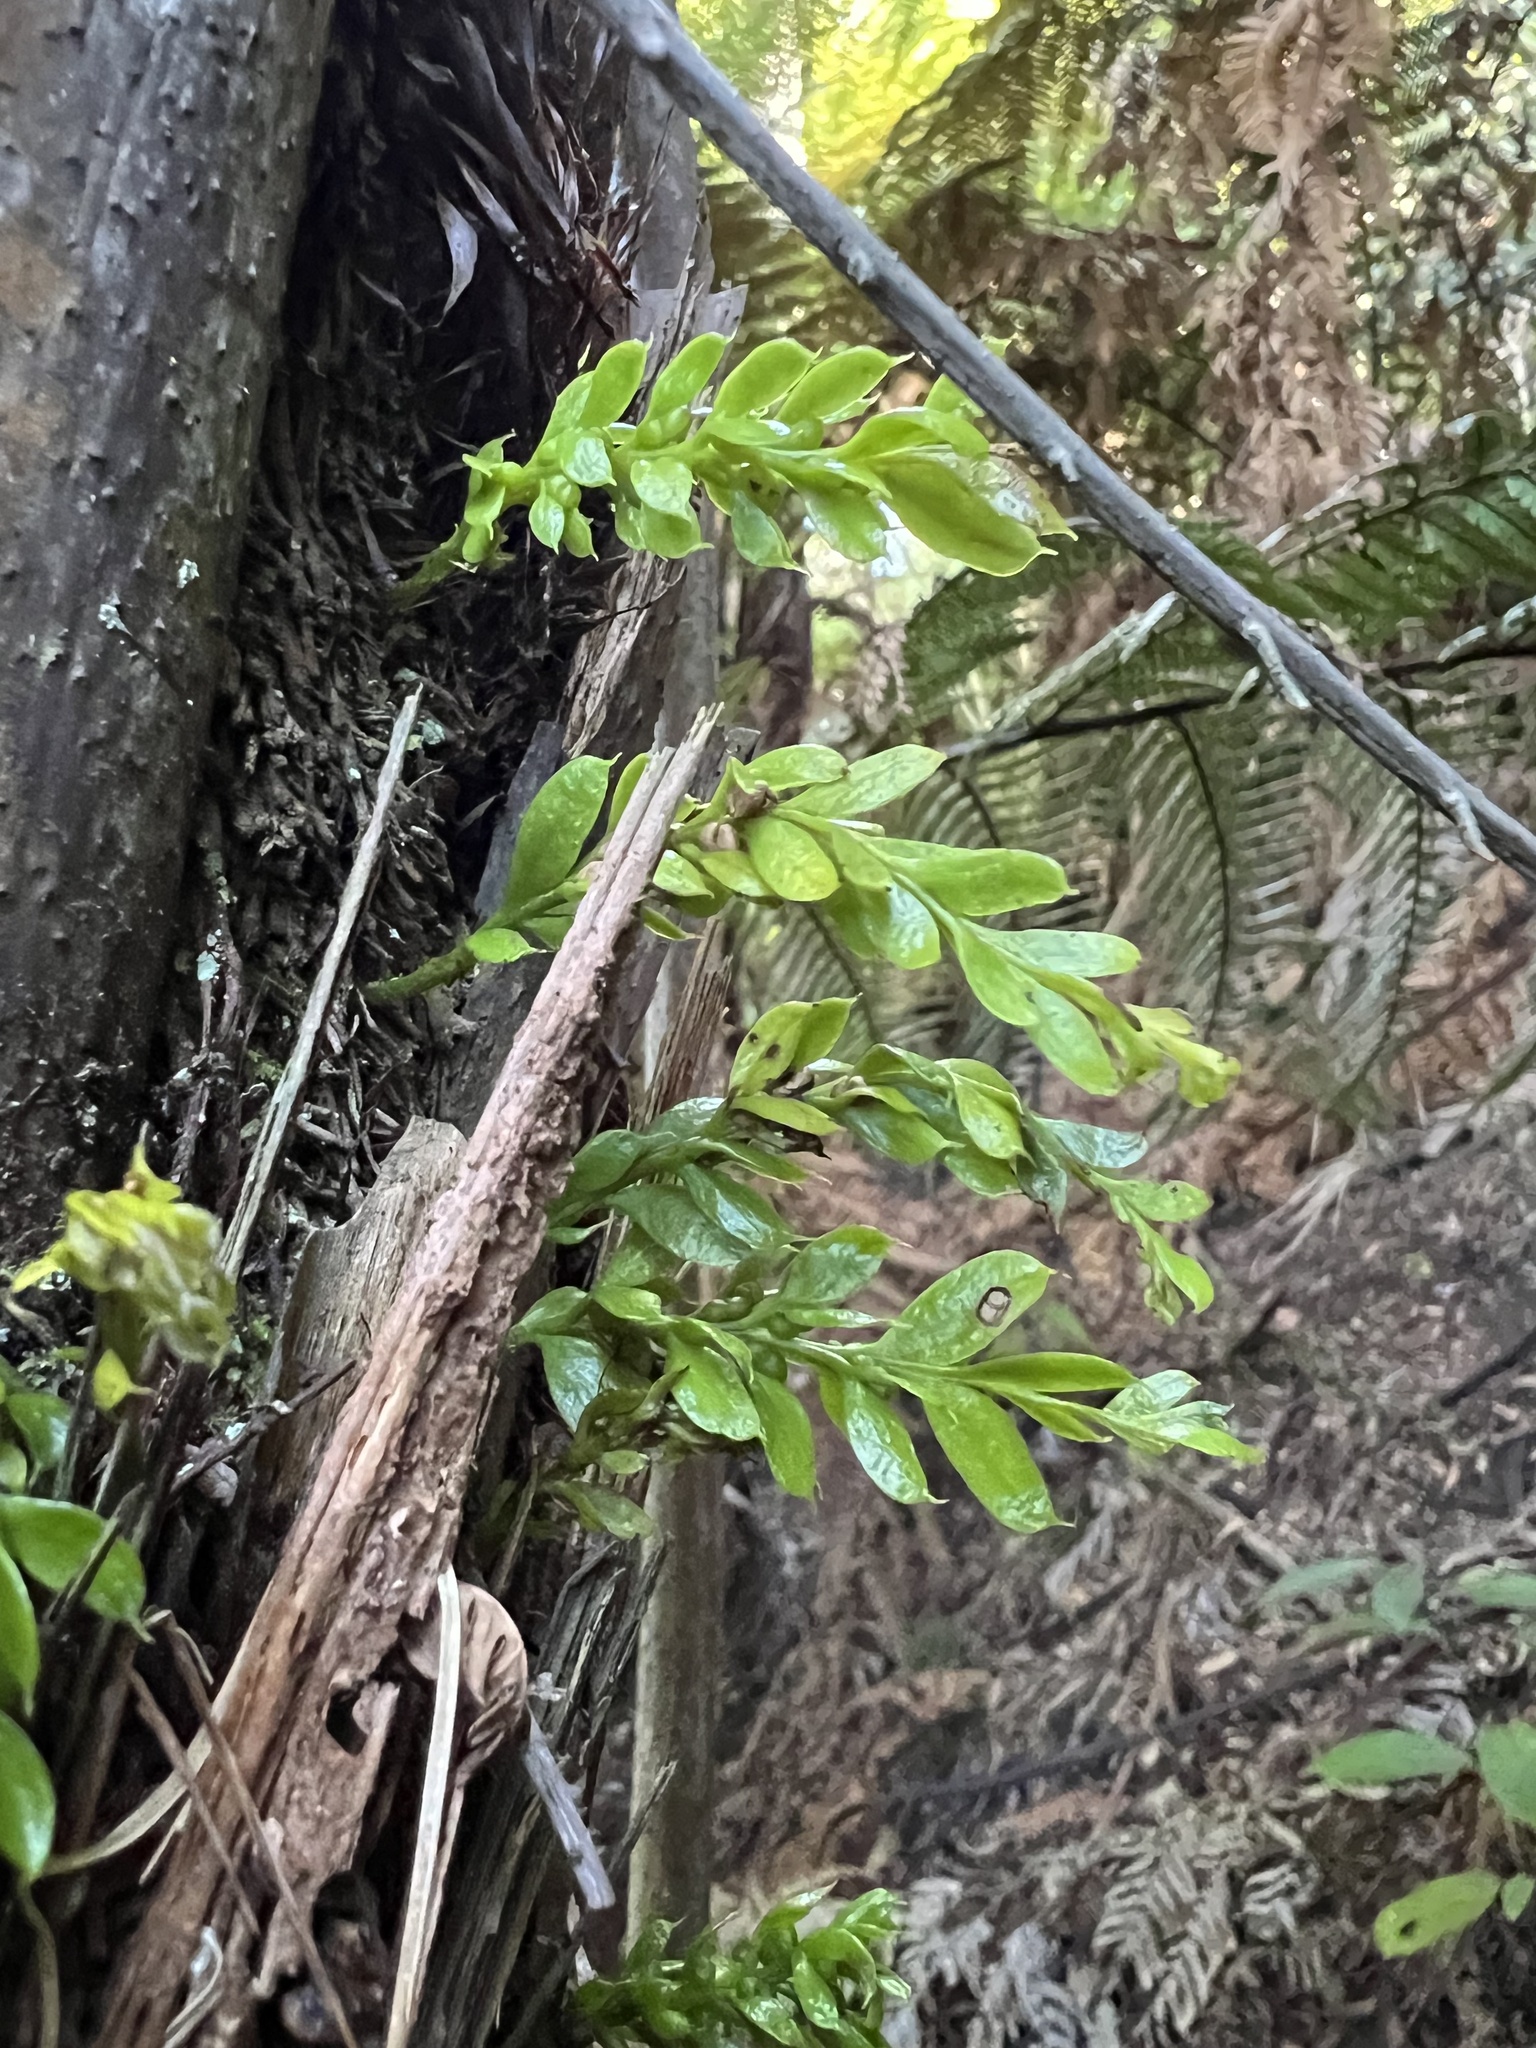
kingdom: Plantae
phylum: Tracheophyta
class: Polypodiopsida
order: Psilotales
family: Psilotaceae
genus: Tmesipteris
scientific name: Tmesipteris lanceolata
